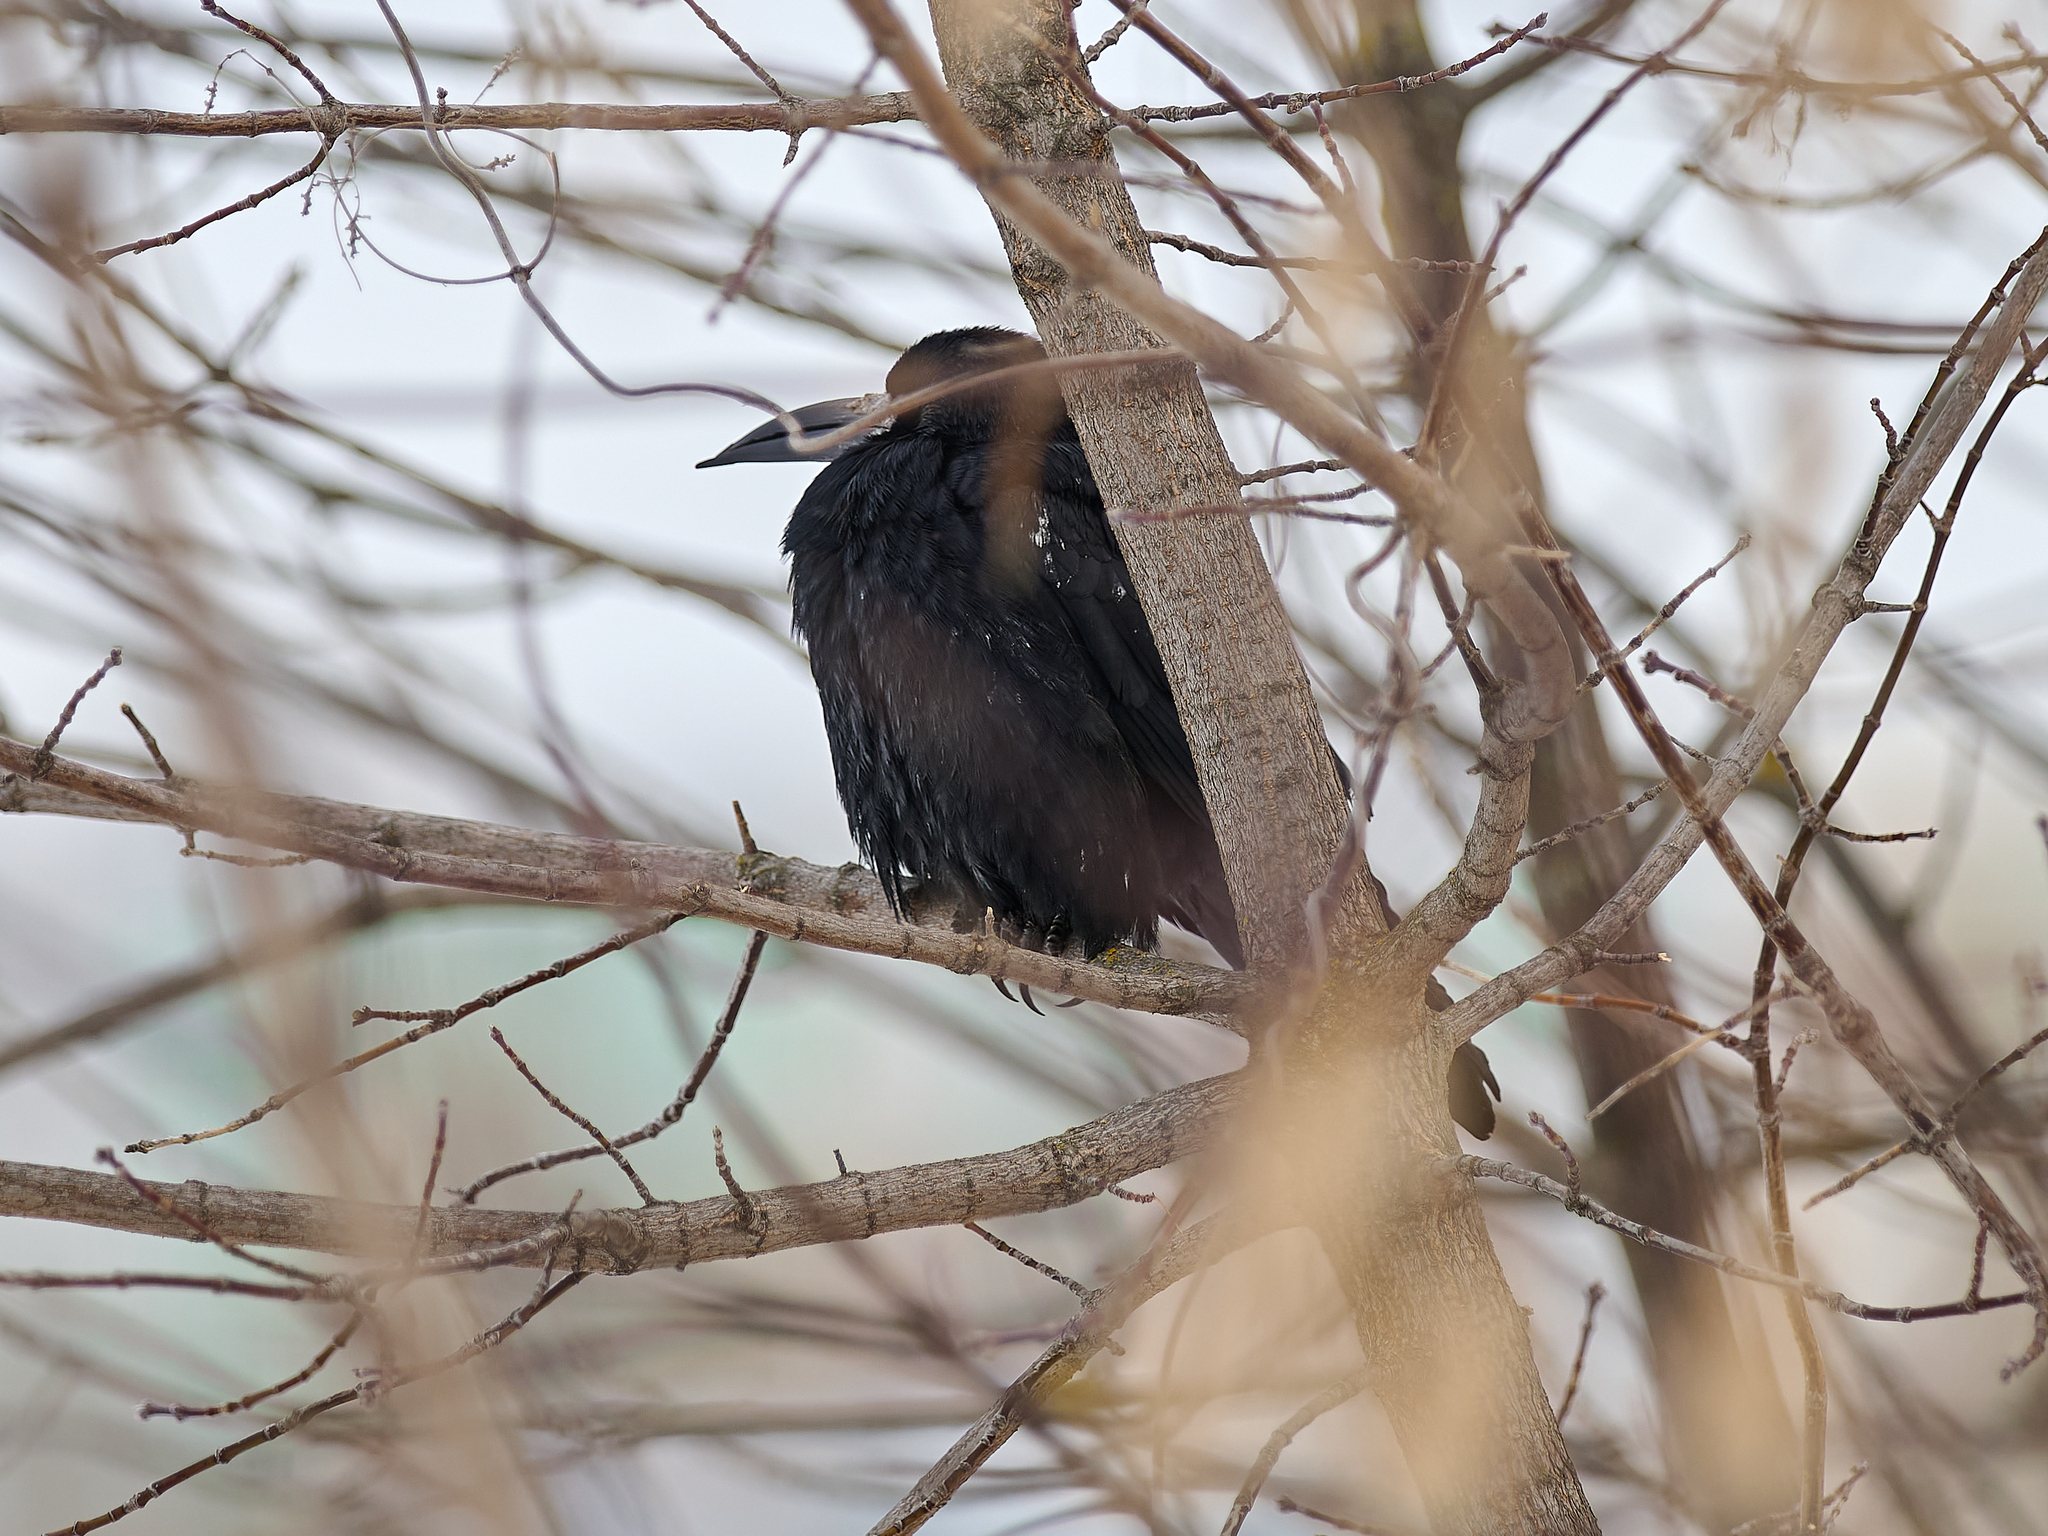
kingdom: Animalia
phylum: Chordata
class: Aves
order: Passeriformes
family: Corvidae
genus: Corvus
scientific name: Corvus frugilegus
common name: Rook
